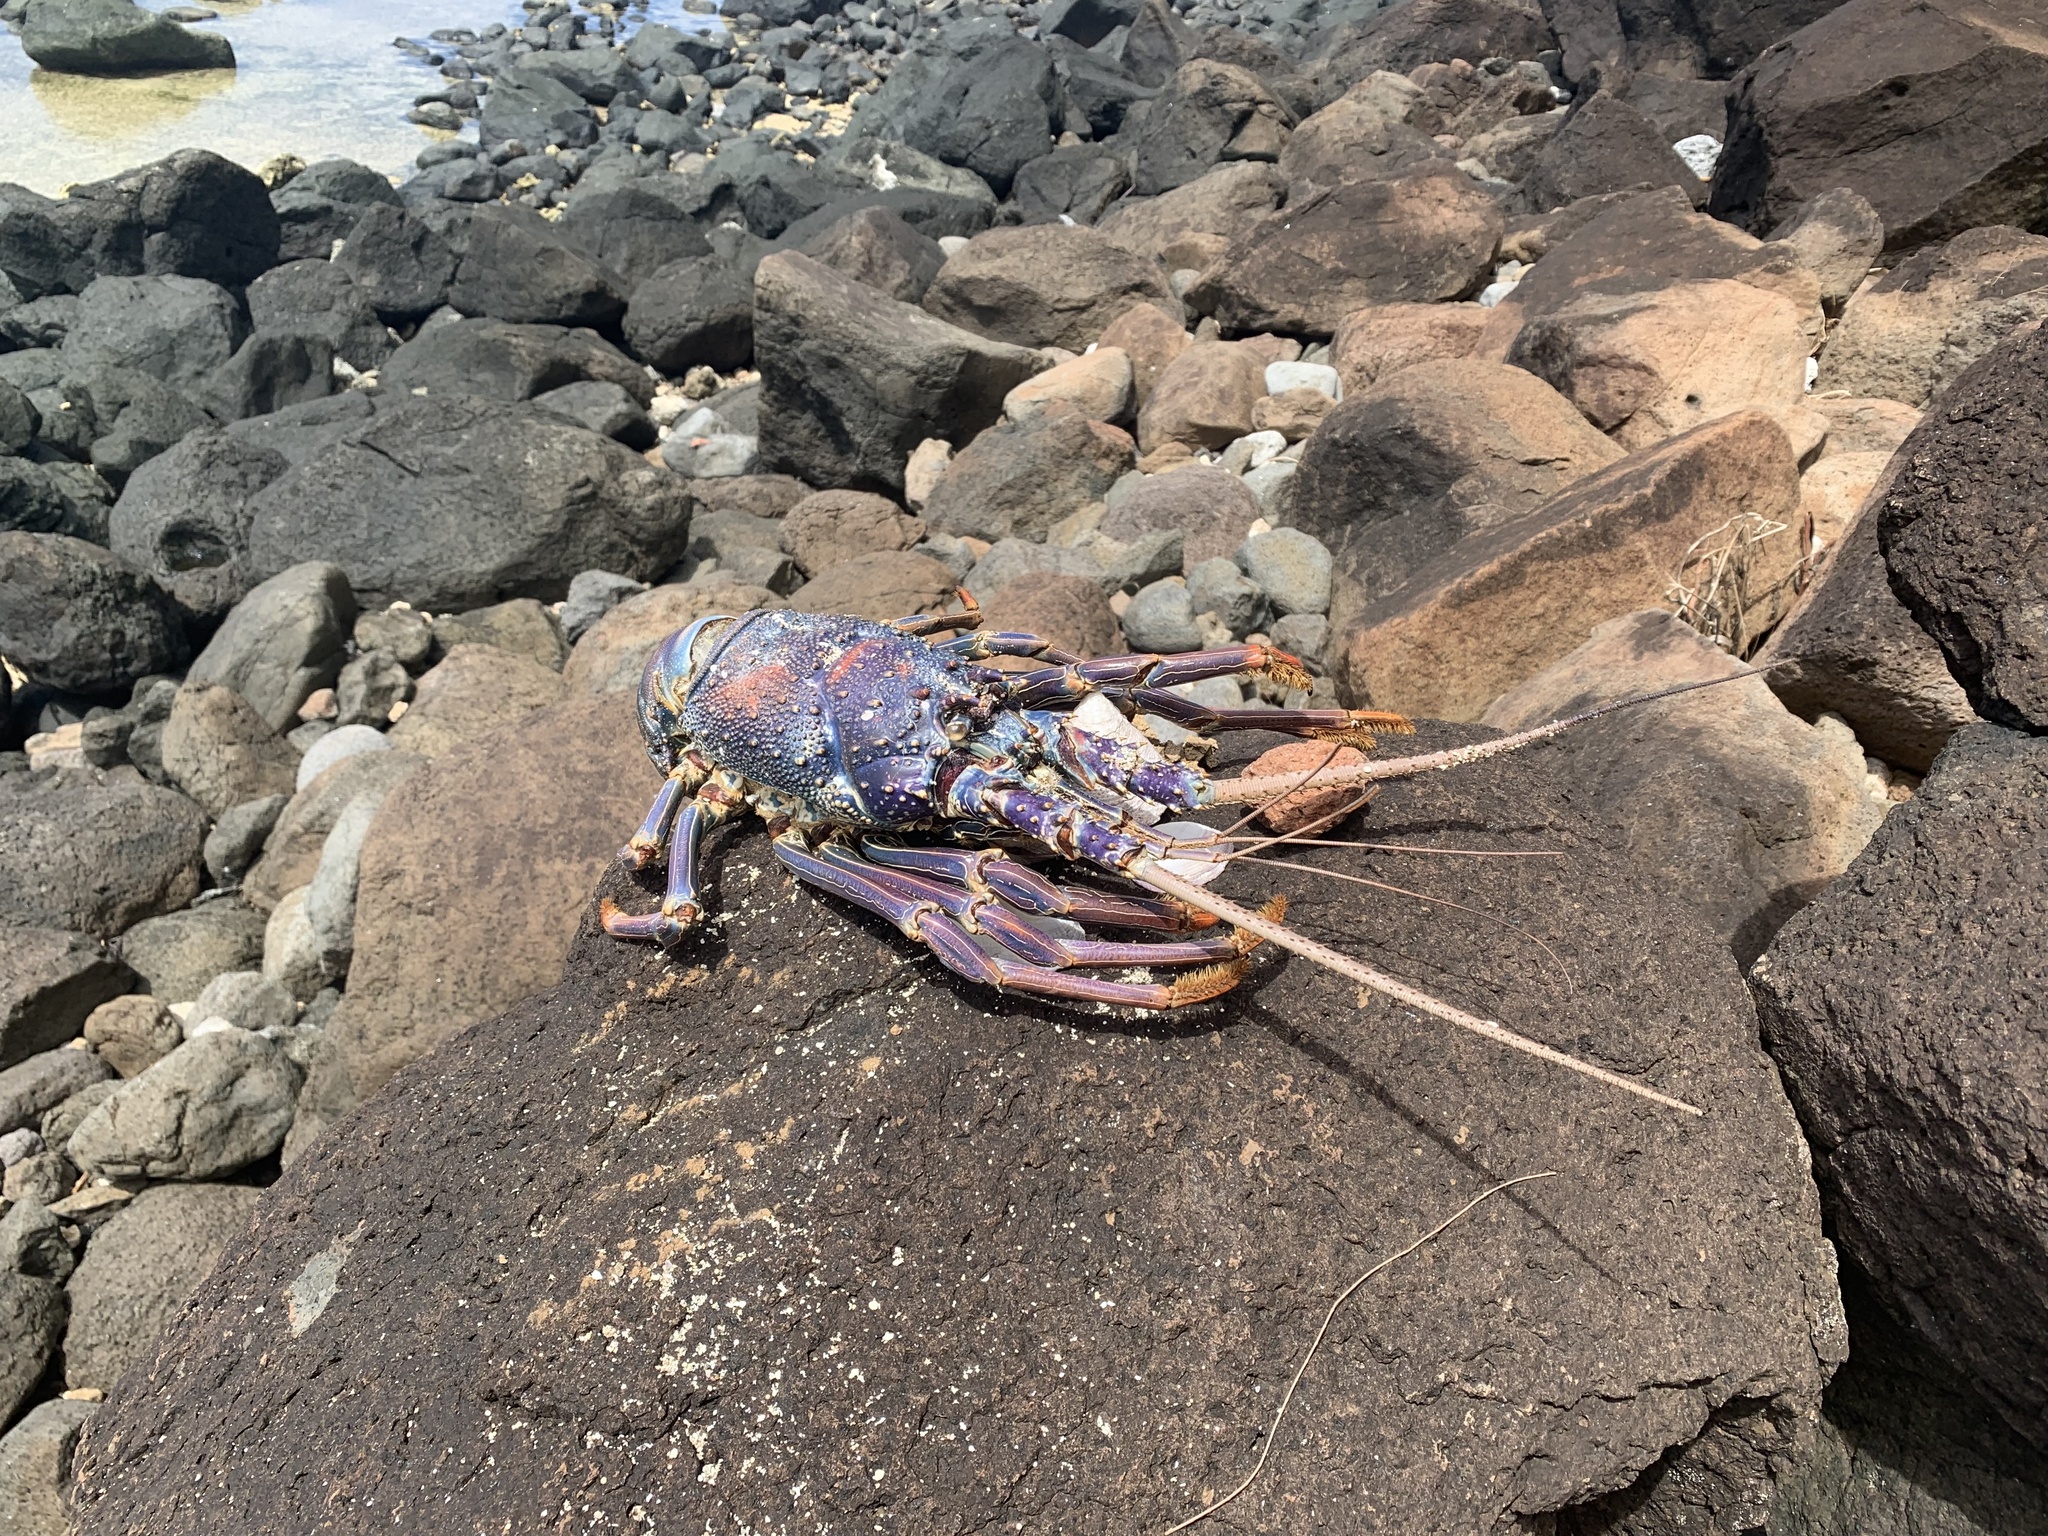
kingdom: Animalia
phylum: Arthropoda
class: Malacostraca
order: Decapoda
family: Palinuridae
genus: Panulirus
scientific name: Panulirus penicillatus
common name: Pronghorn spiny lobster
